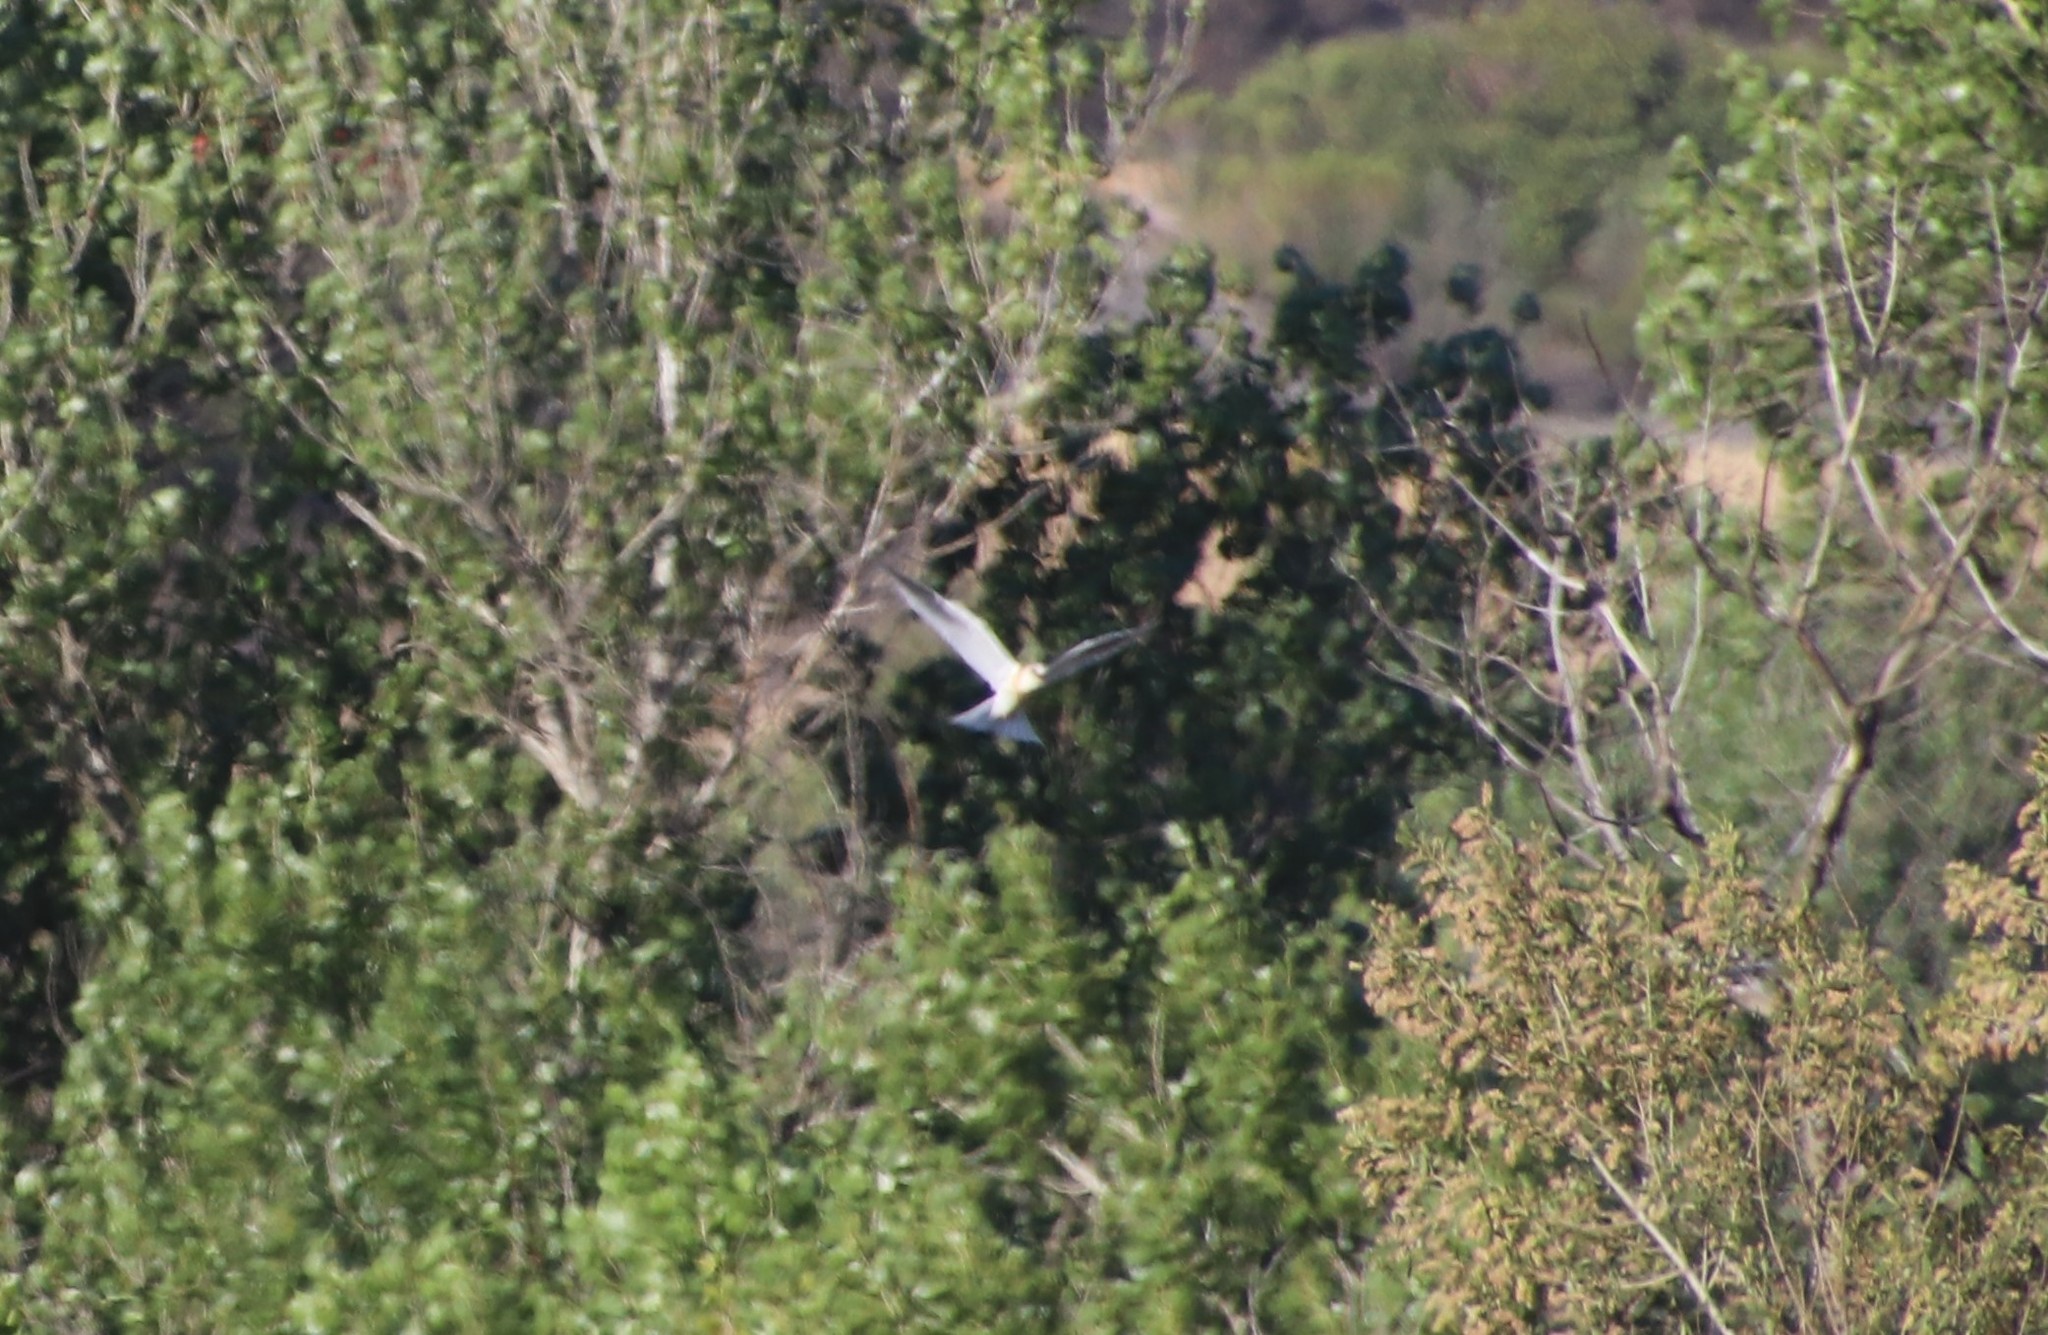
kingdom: Animalia
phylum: Chordata
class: Aves
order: Accipitriformes
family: Accipitridae
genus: Elanus
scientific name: Elanus leucurus
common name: White-tailed kite
